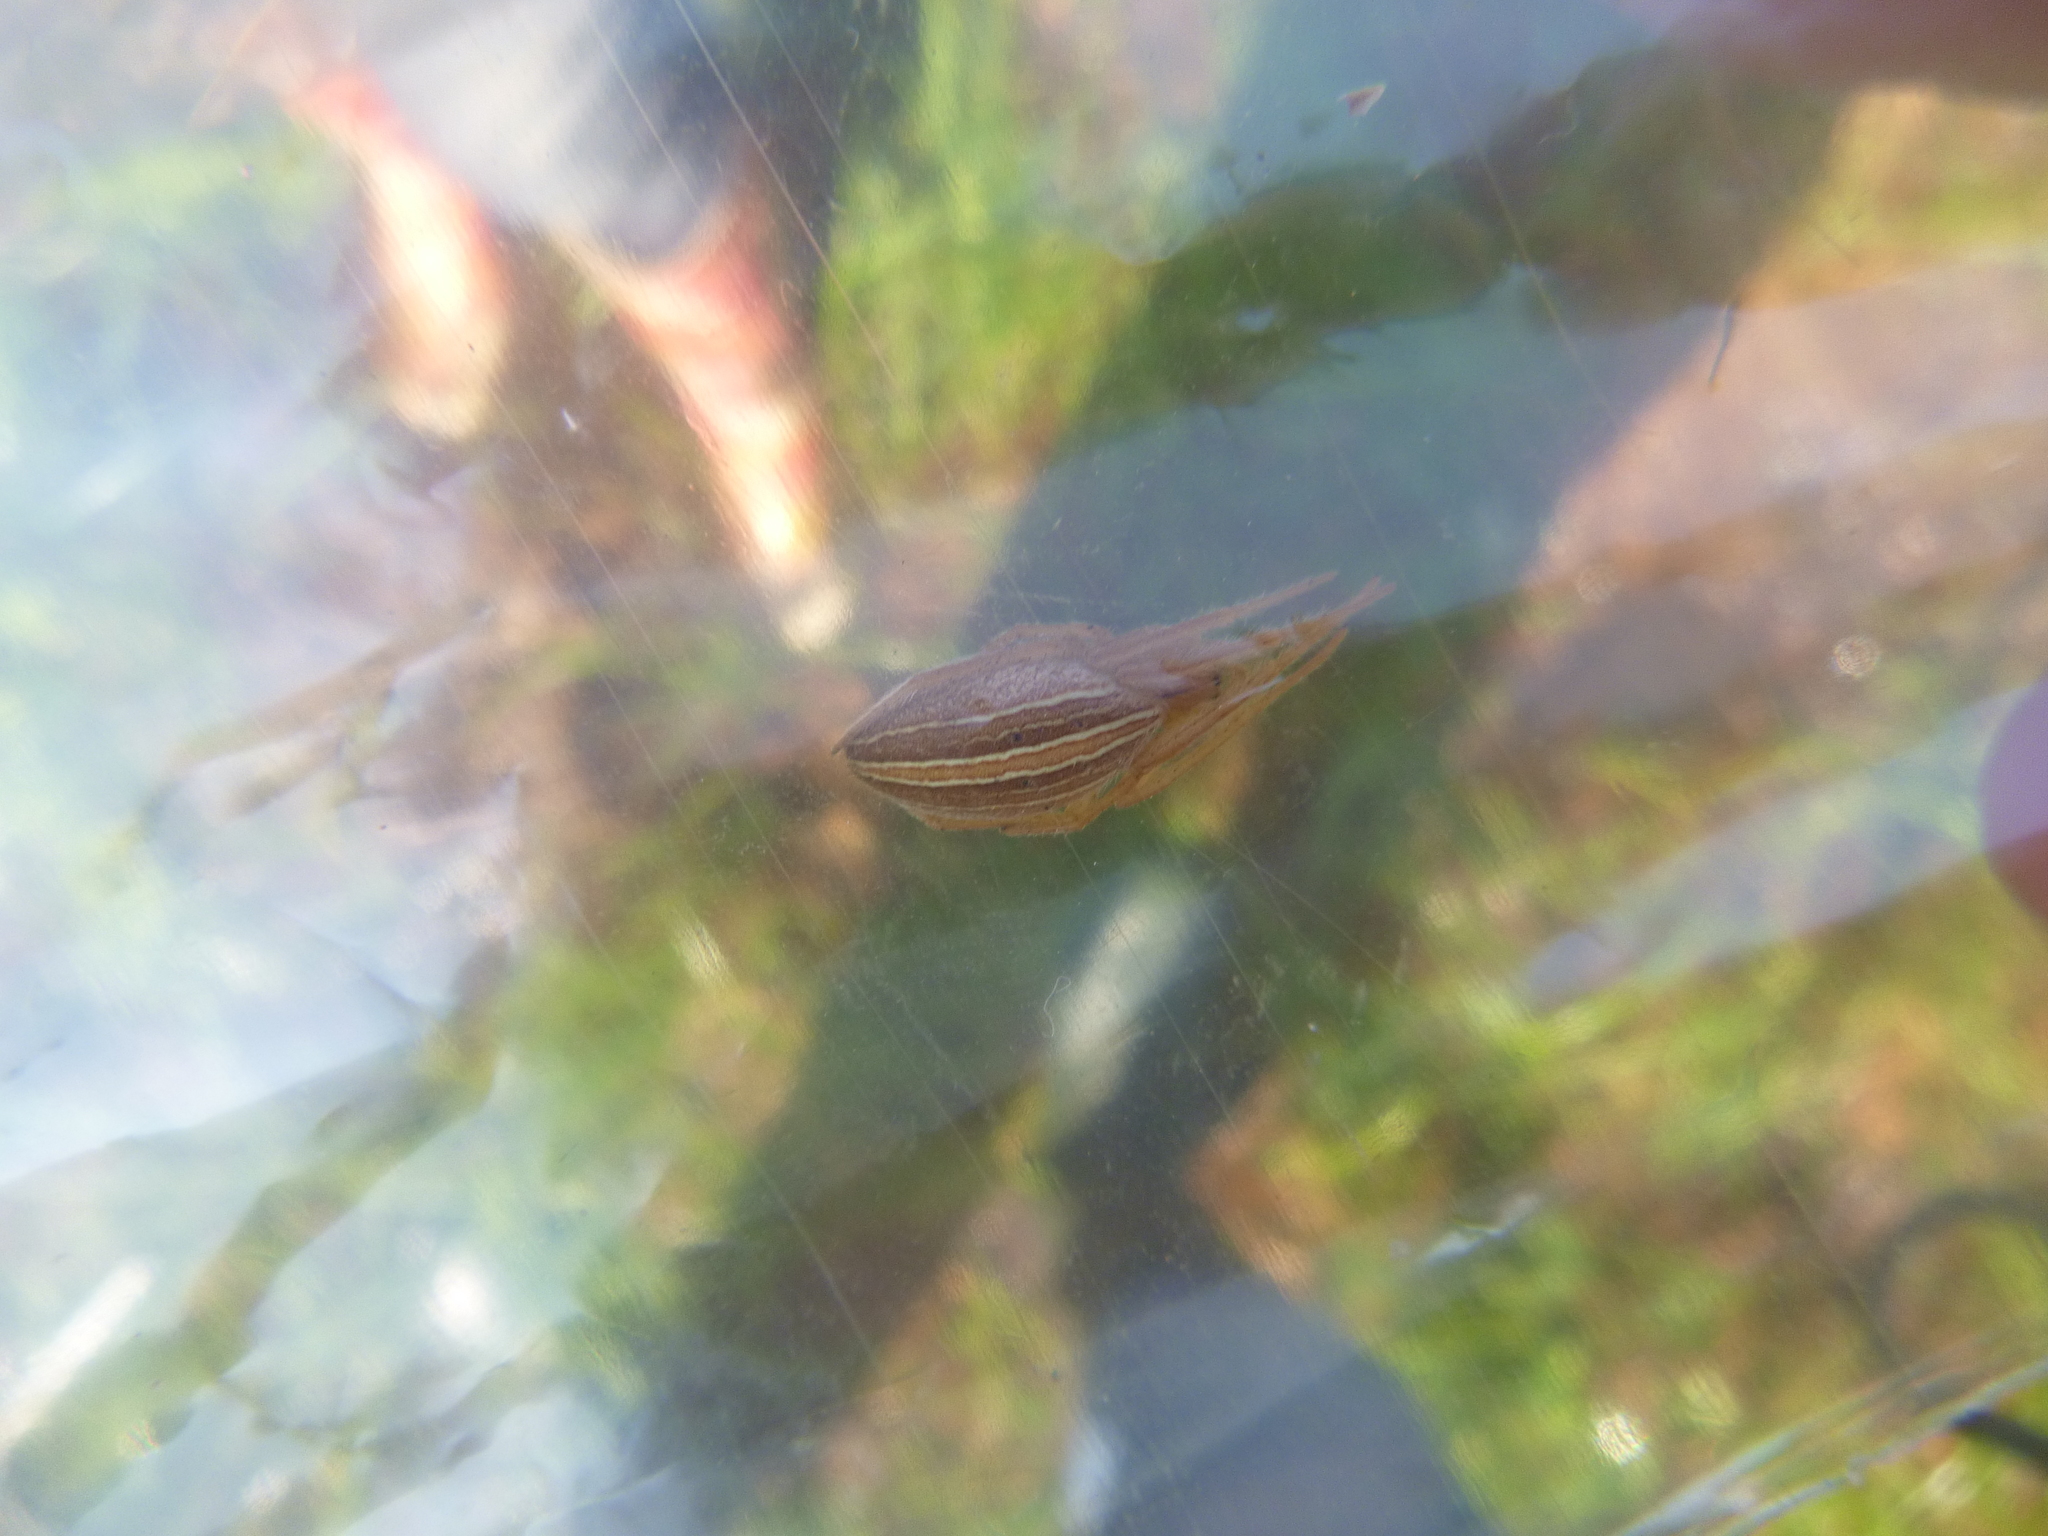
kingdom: Animalia
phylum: Arthropoda
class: Arachnida
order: Araneae
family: Araneidae
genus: Larinia
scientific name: Larinia jeskovi
